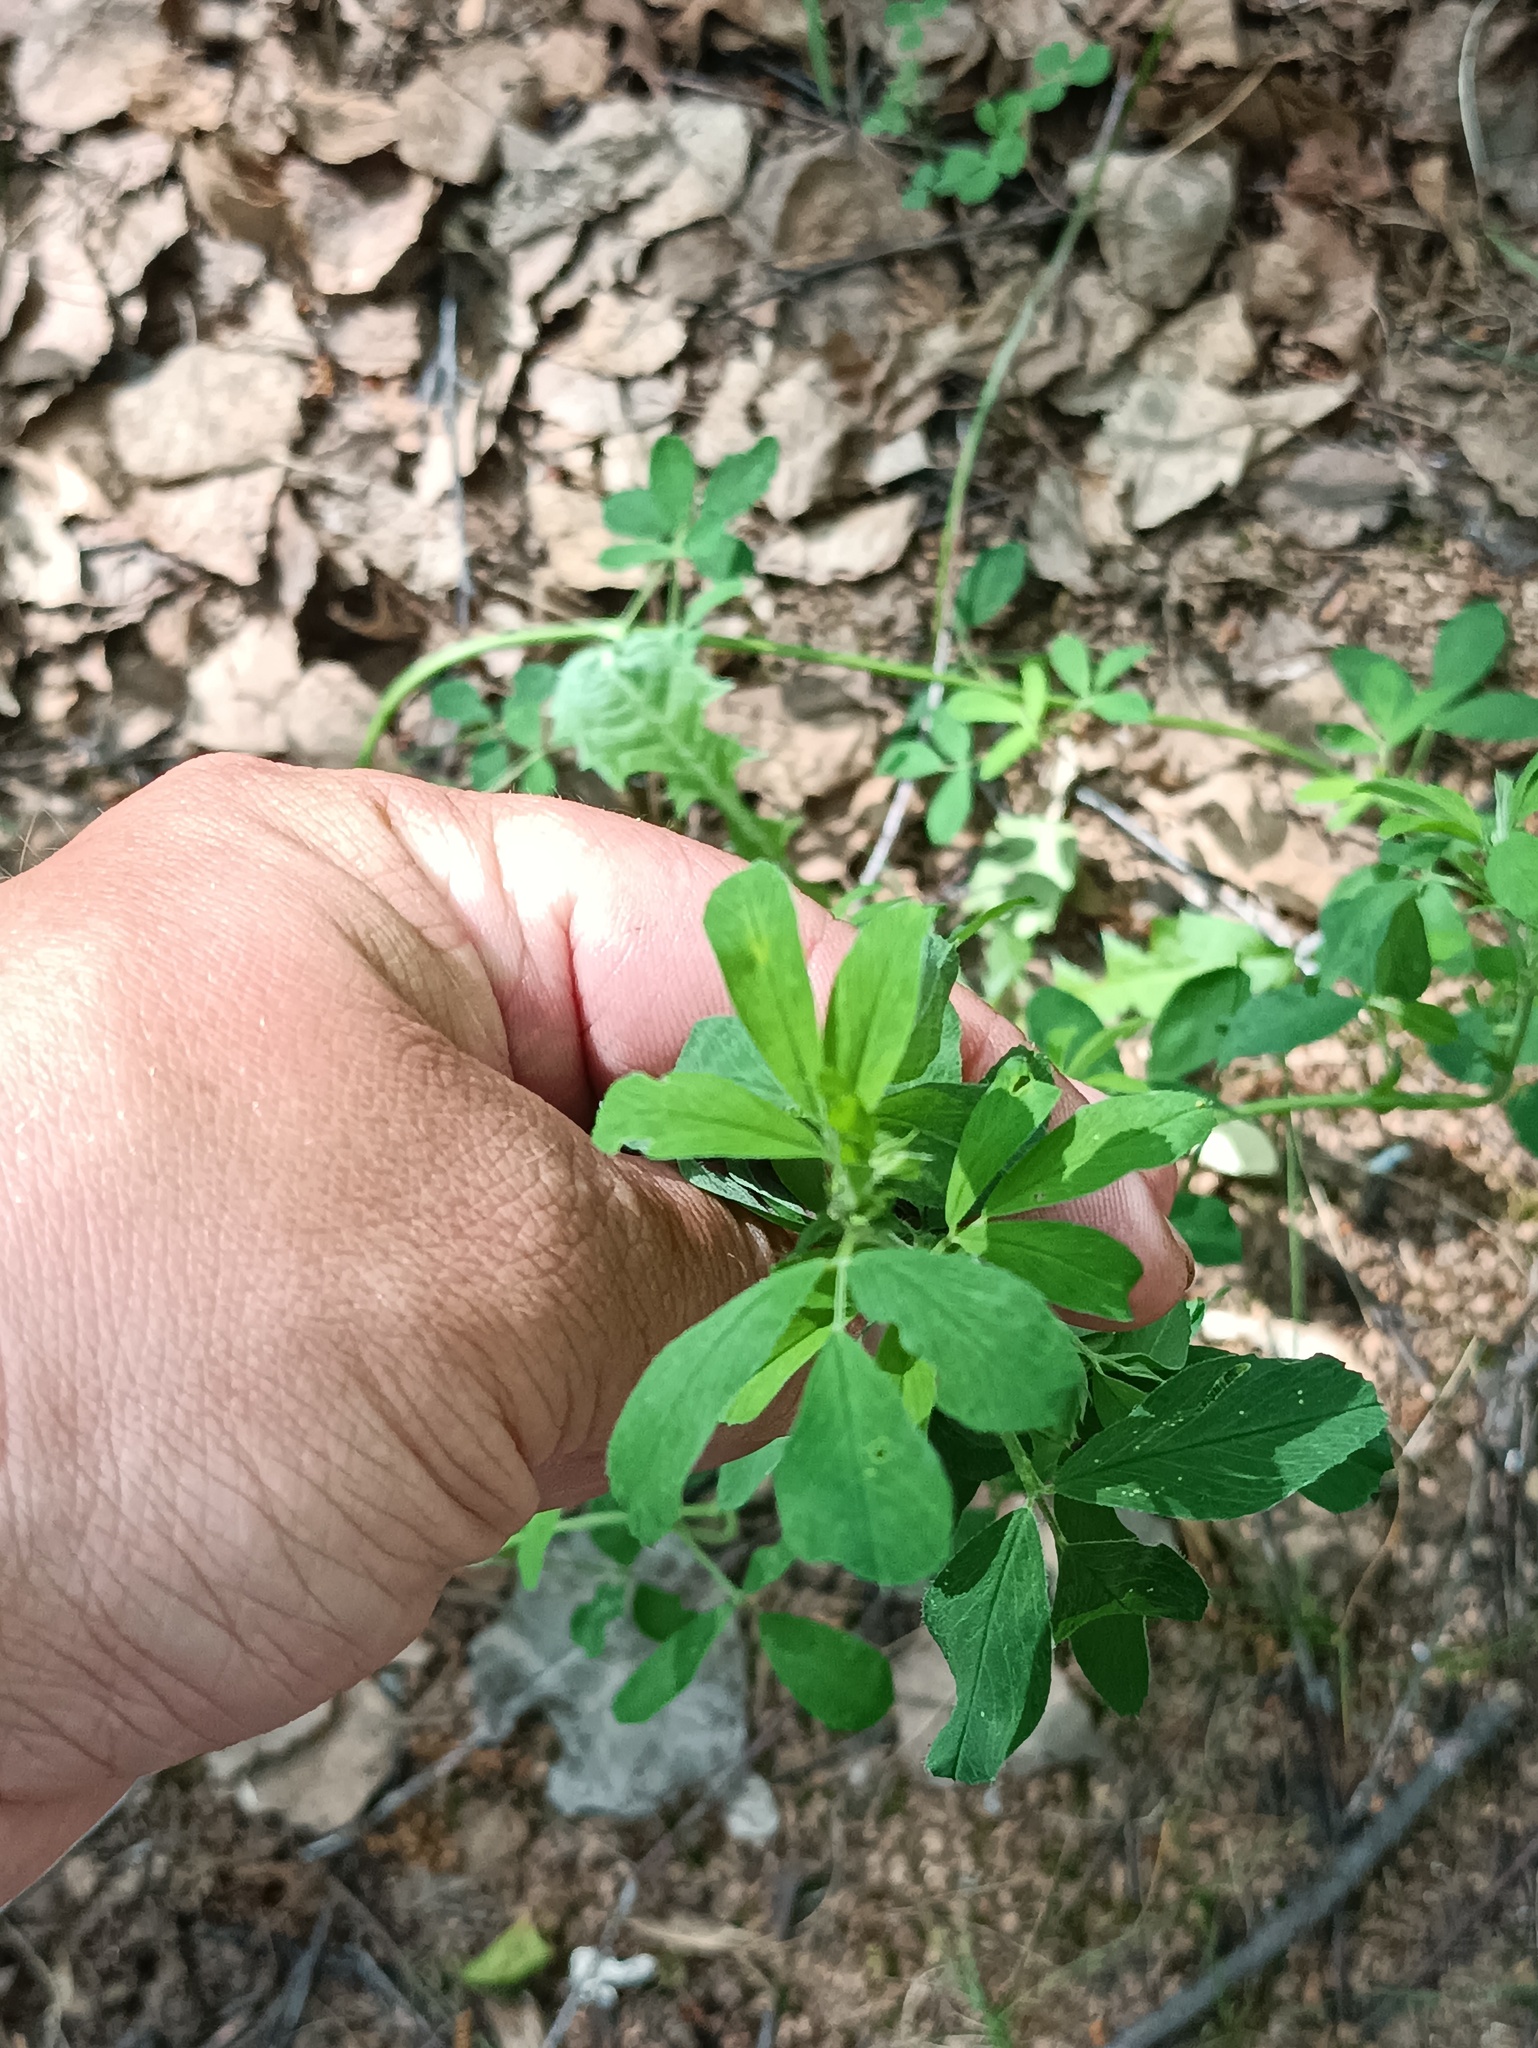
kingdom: Plantae
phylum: Tracheophyta
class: Magnoliopsida
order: Fabales
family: Fabaceae
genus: Medicago
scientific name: Medicago
